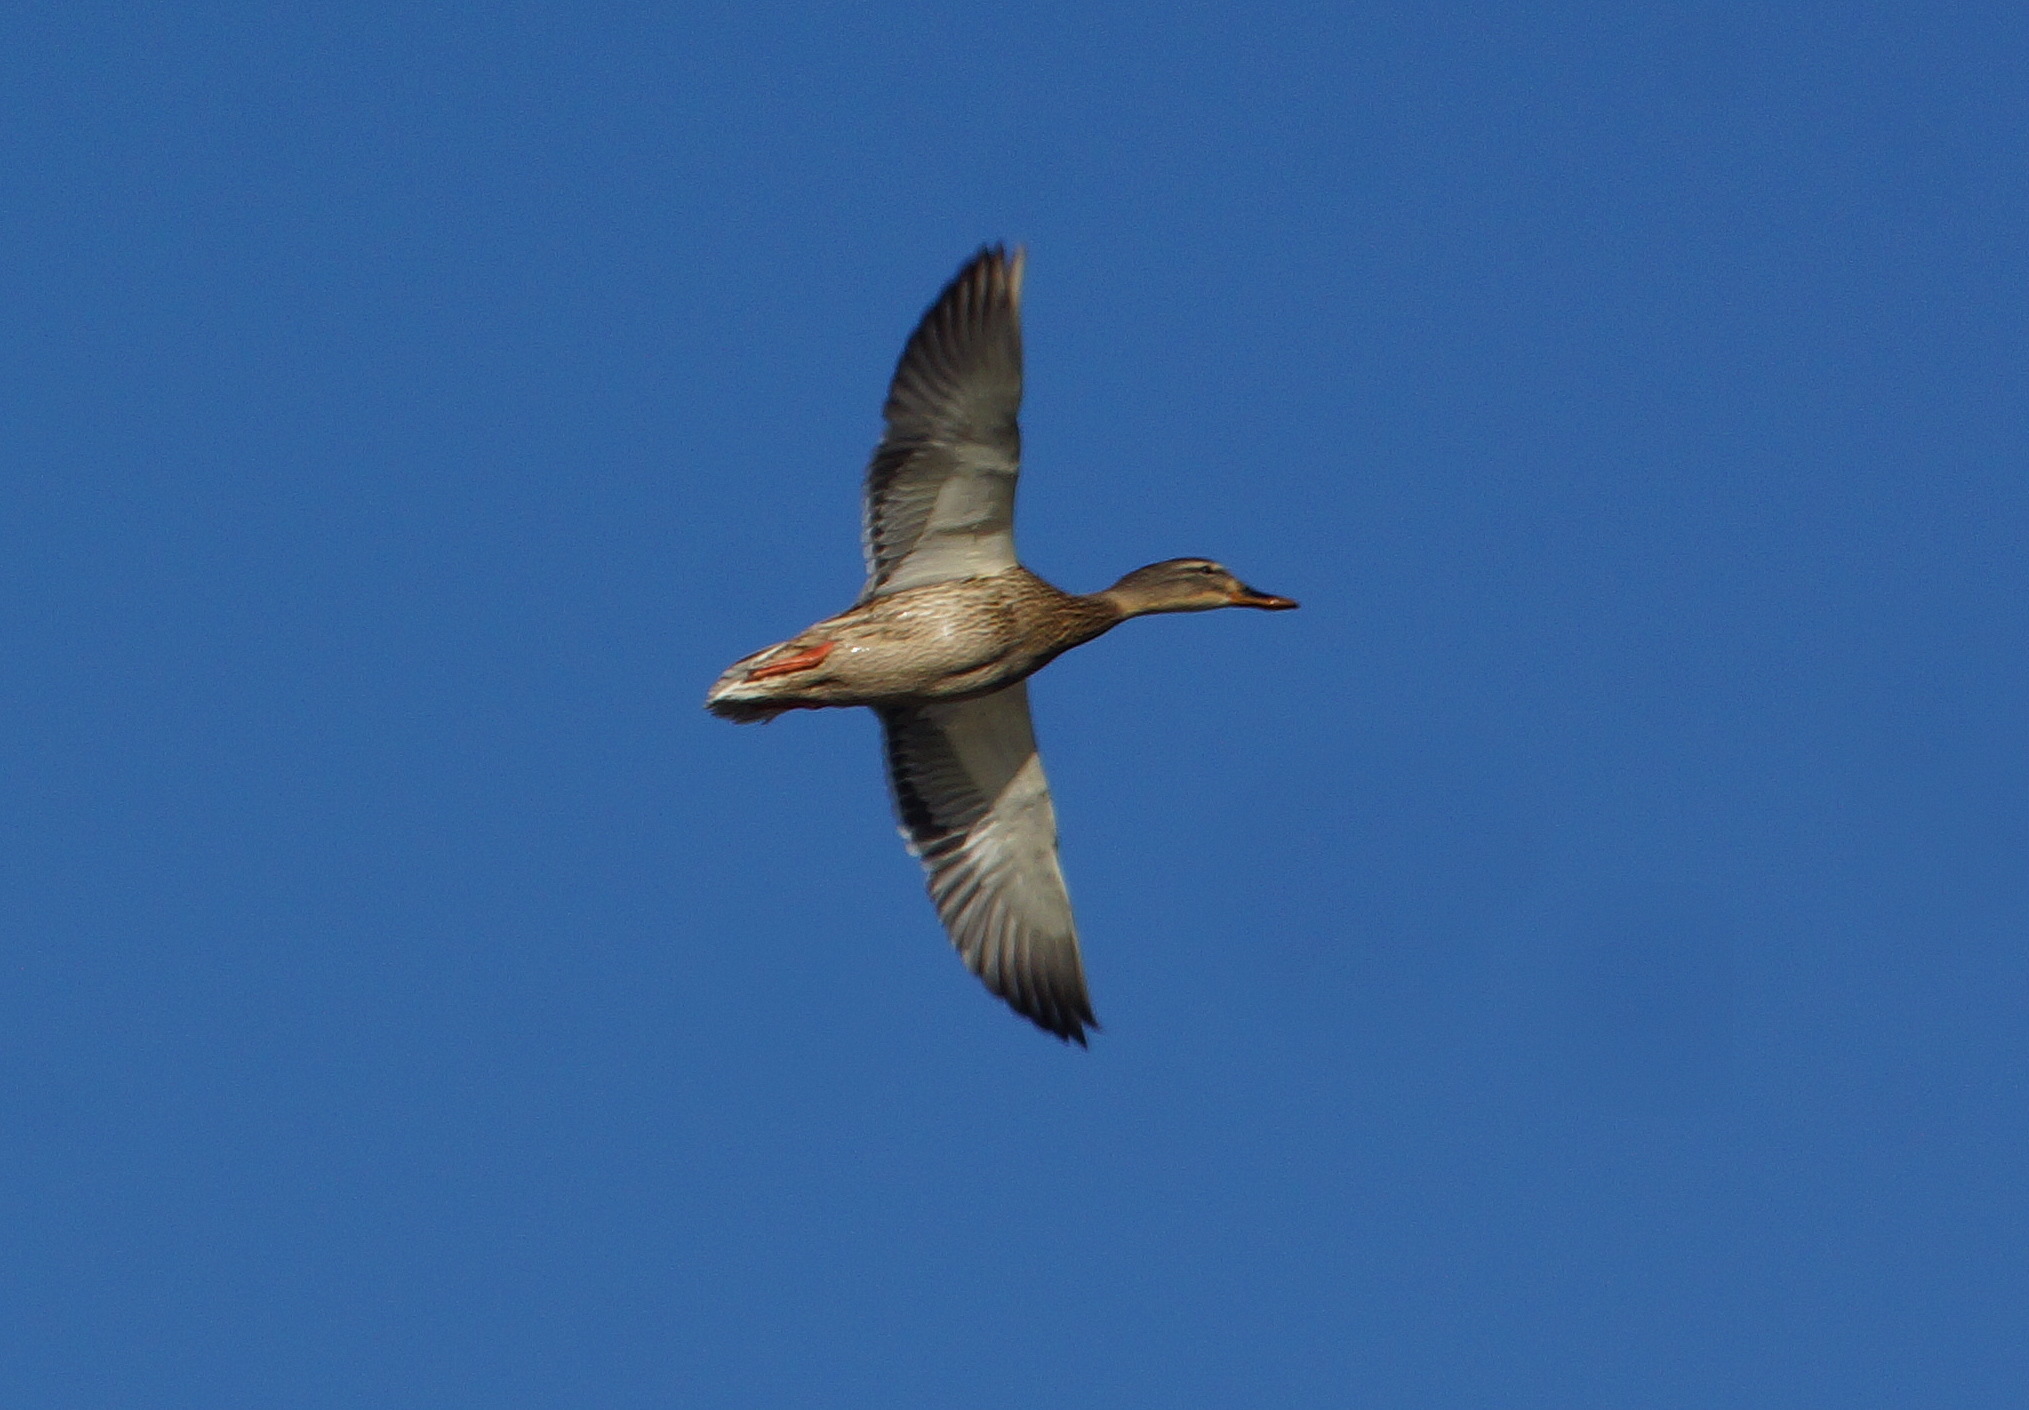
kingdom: Animalia
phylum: Chordata
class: Aves
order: Anseriformes
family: Anatidae
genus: Anas
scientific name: Anas platyrhynchos
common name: Mallard
